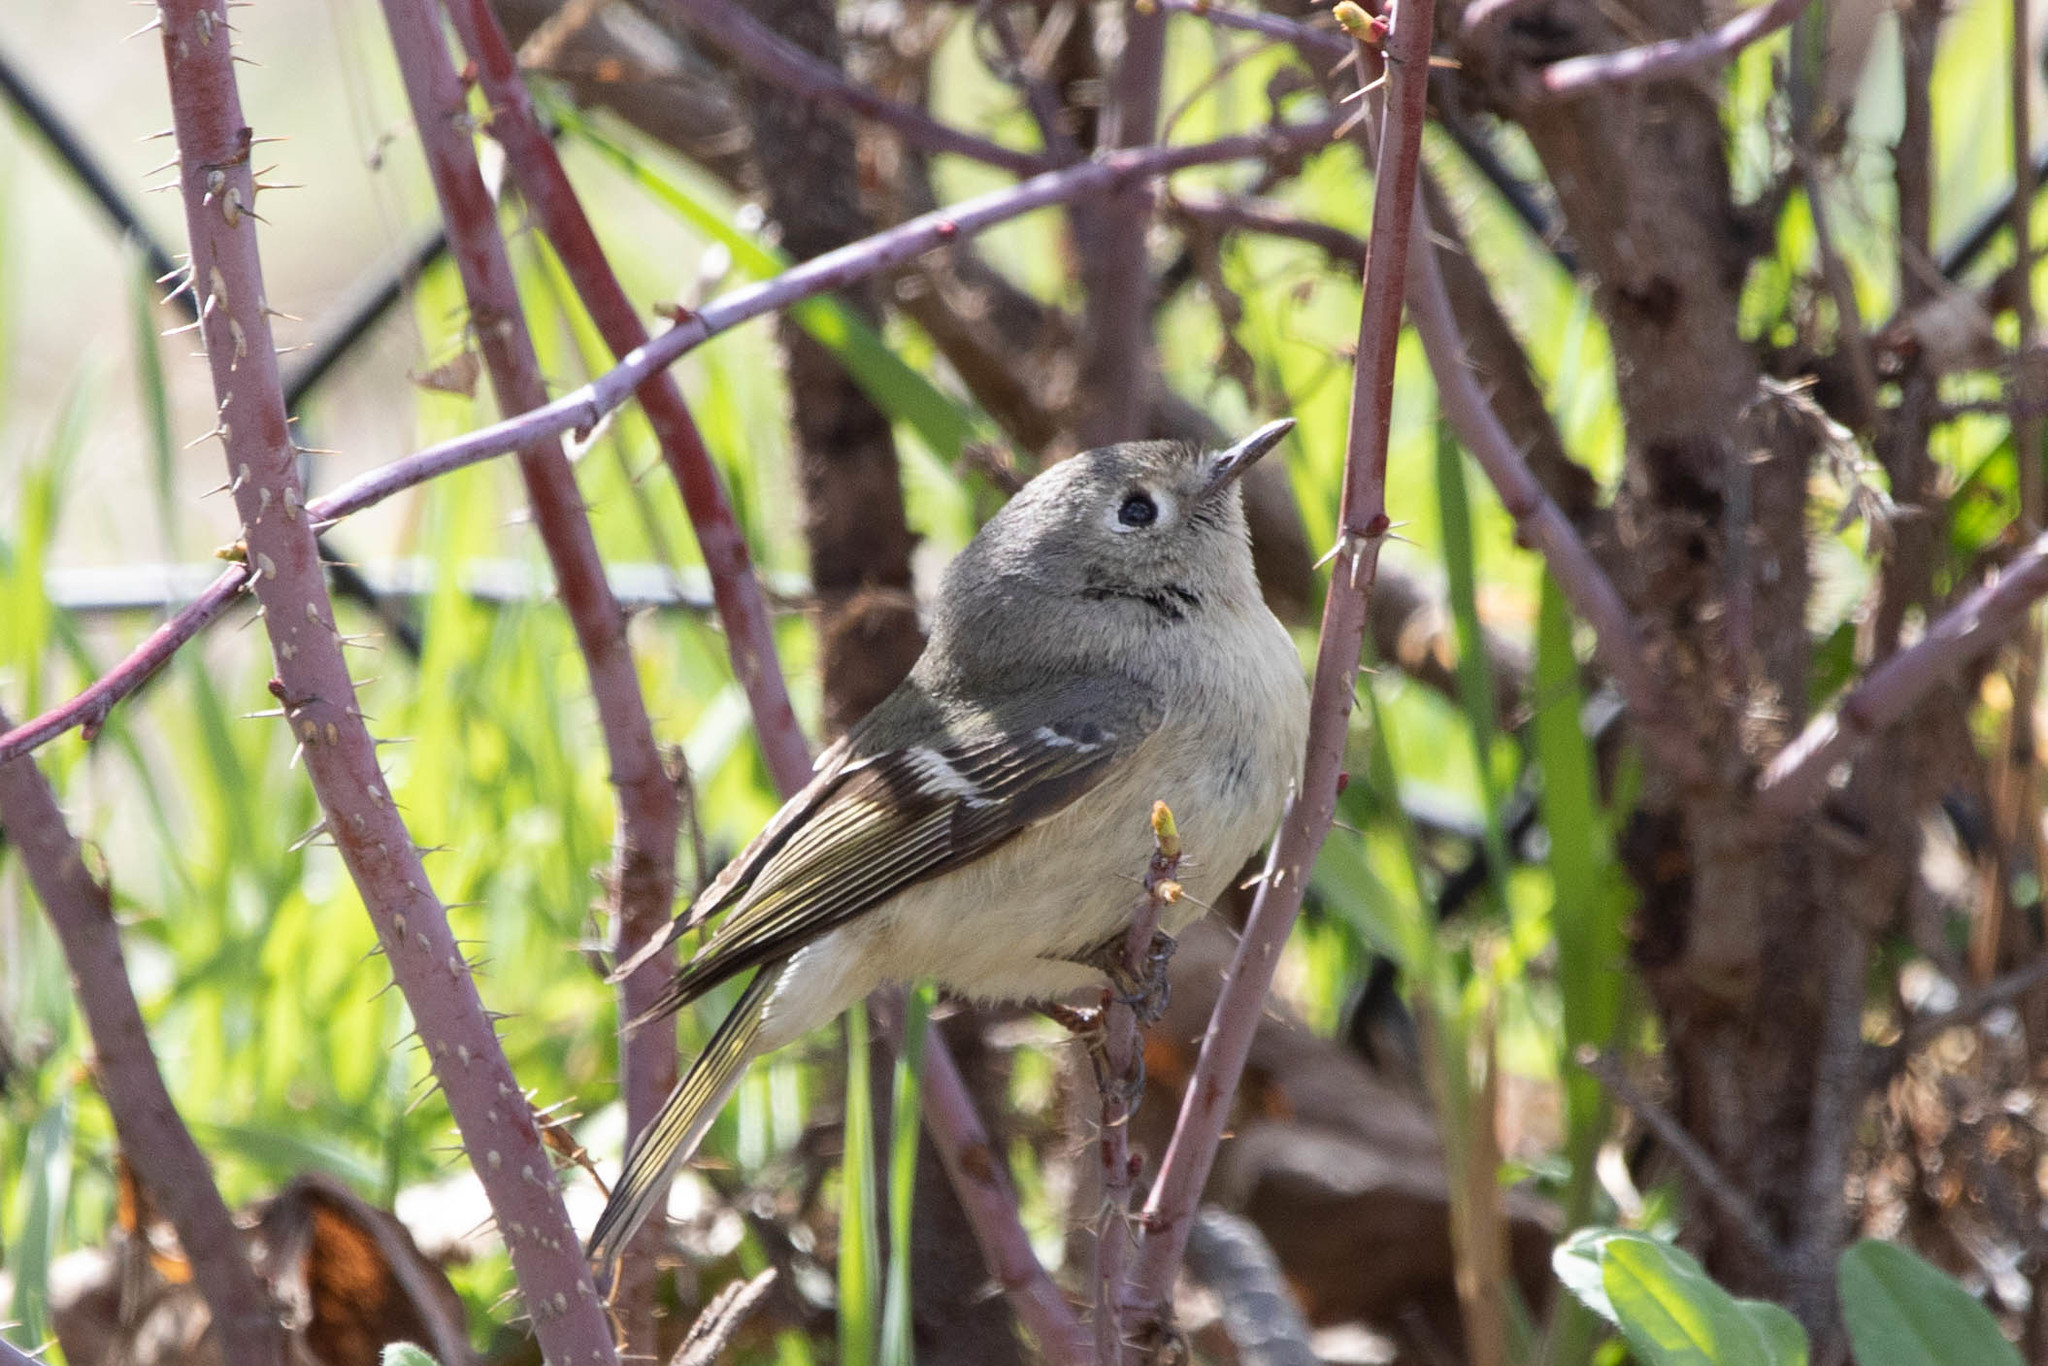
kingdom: Animalia
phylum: Chordata
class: Aves
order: Passeriformes
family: Regulidae
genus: Regulus
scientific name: Regulus calendula
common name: Ruby-crowned kinglet
